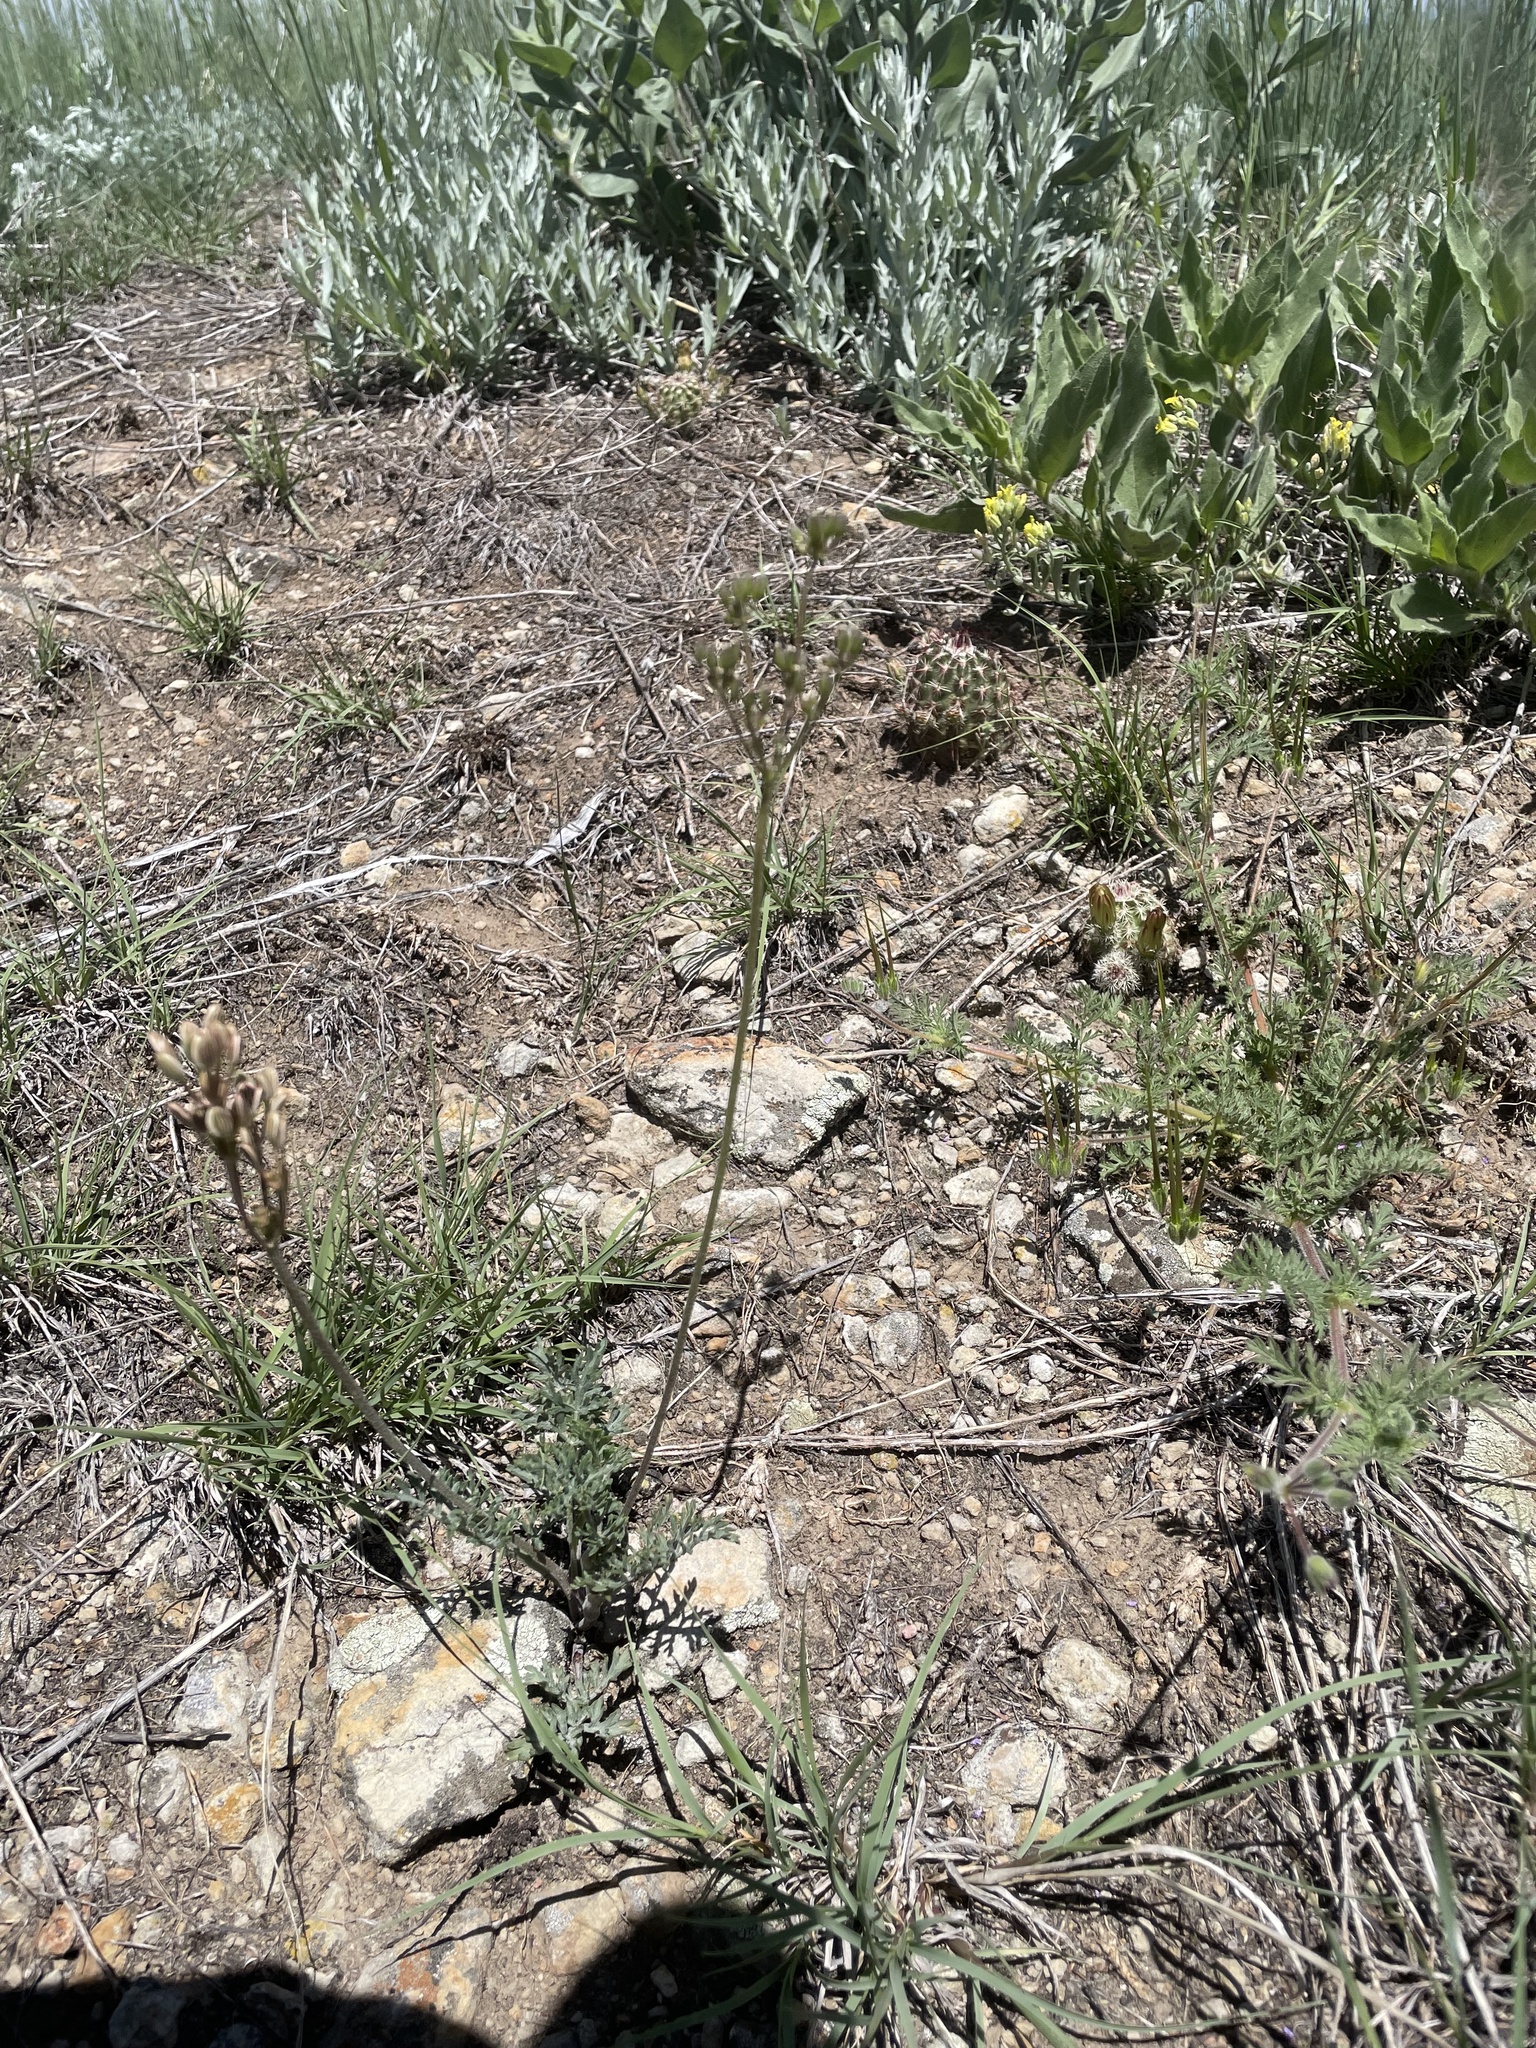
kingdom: Plantae
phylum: Tracheophyta
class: Magnoliopsida
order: Apiales
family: Apiaceae
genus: Lomatium
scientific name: Lomatium orientale
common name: Eastern cous
